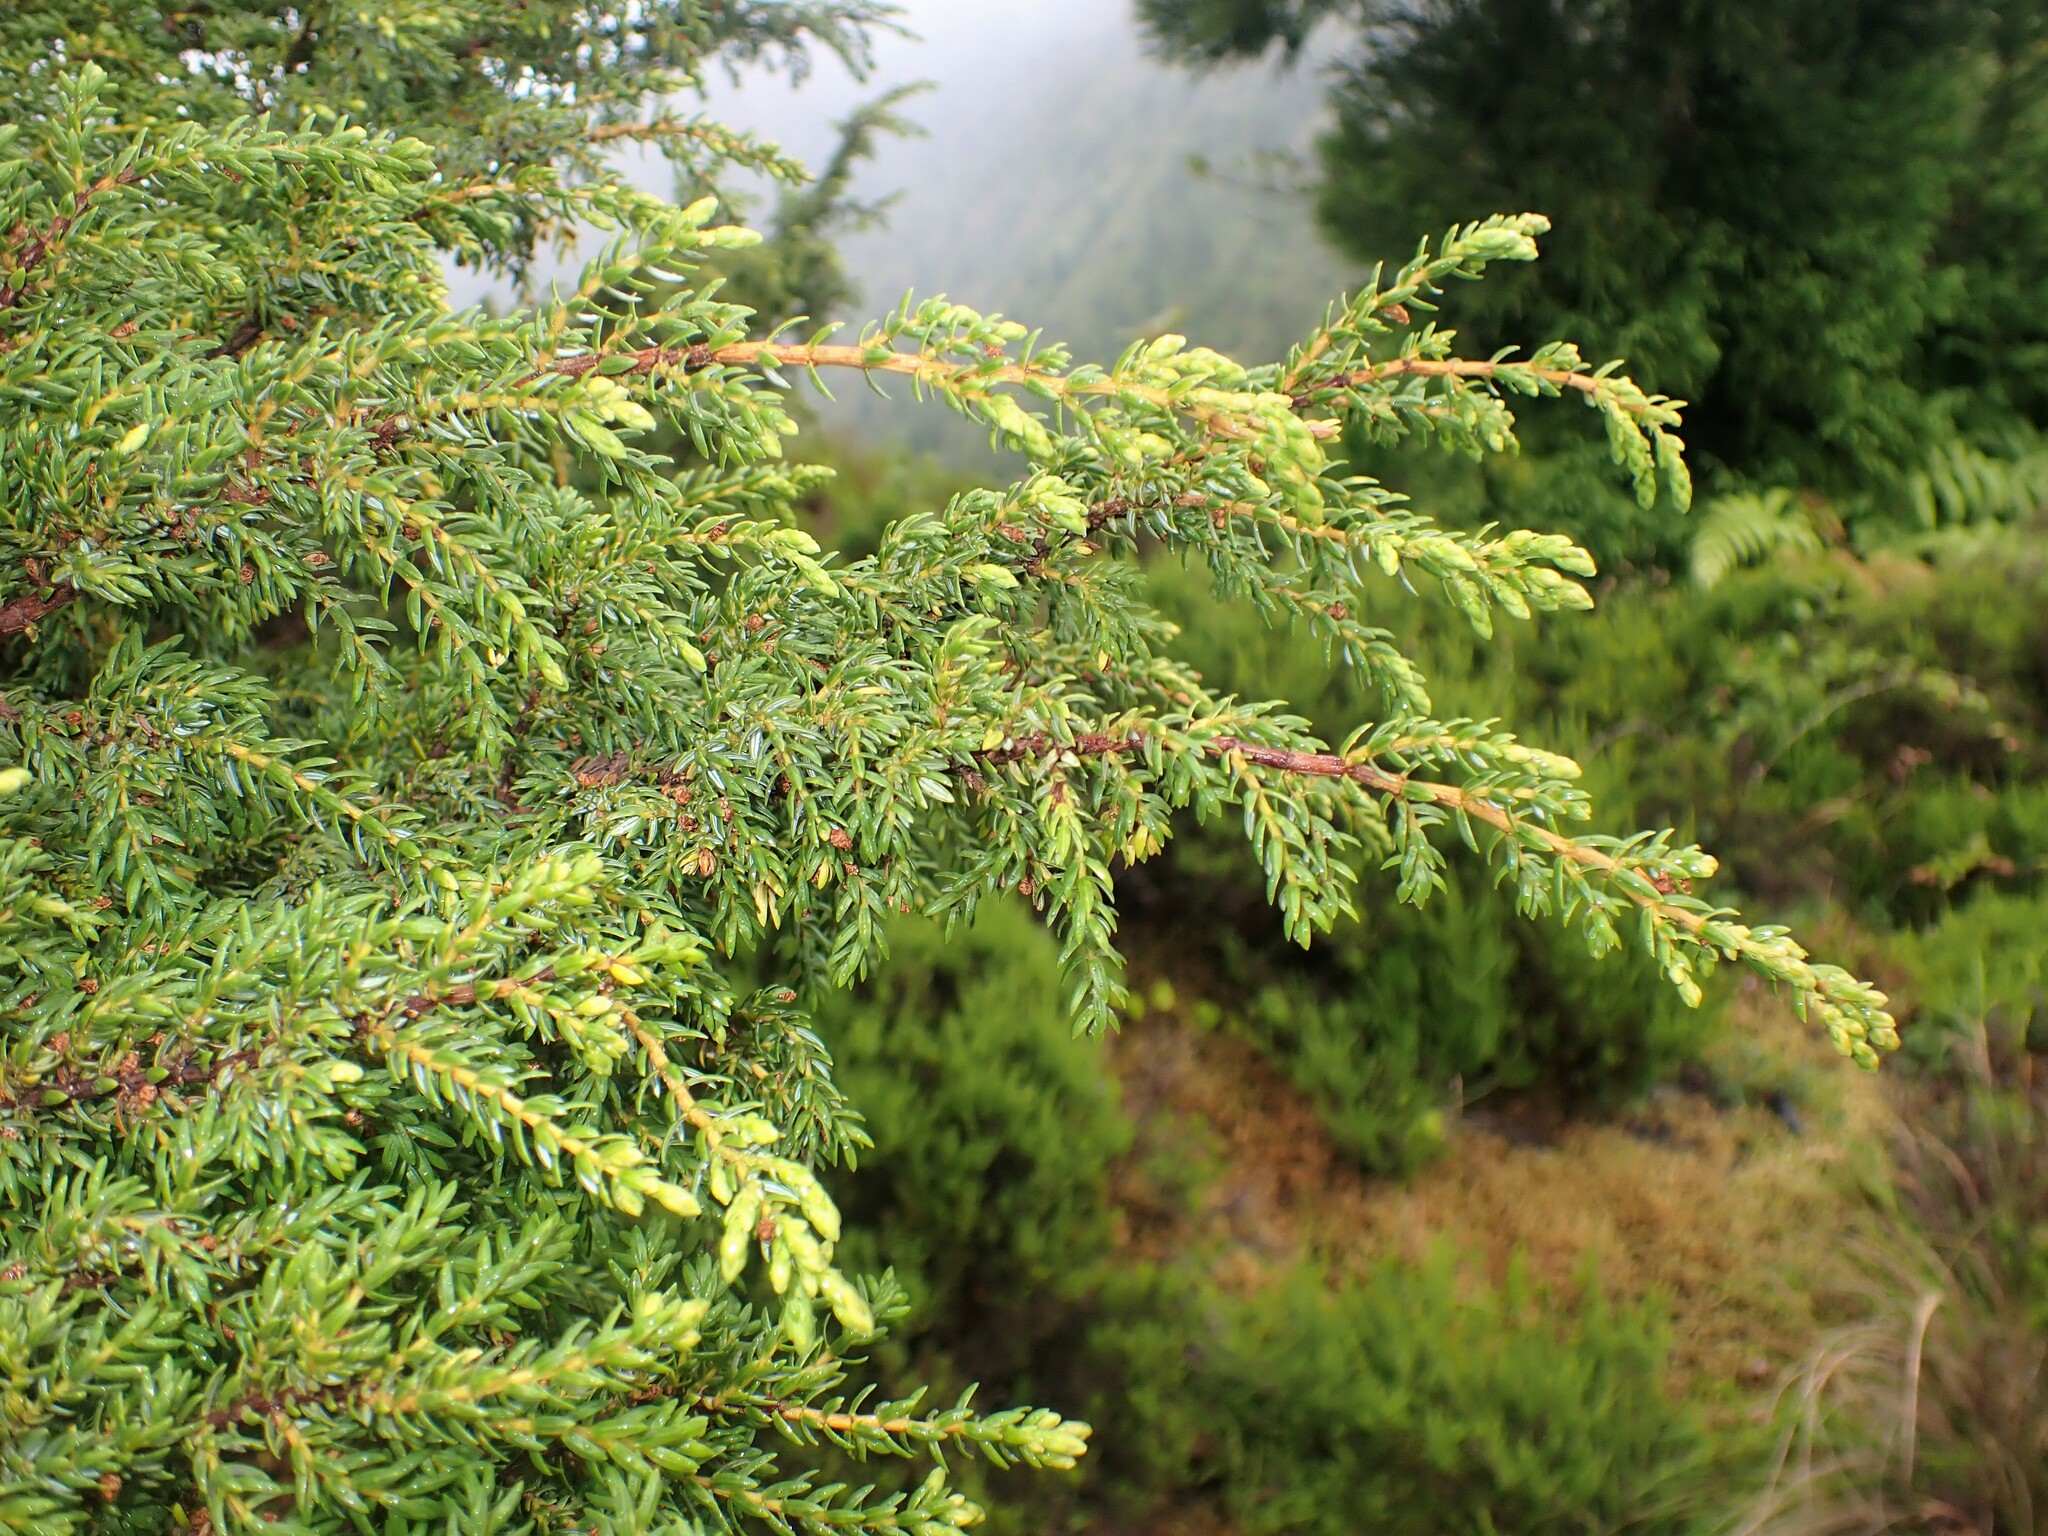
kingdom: Plantae
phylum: Tracheophyta
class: Pinopsida
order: Pinales
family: Cupressaceae
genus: Juniperus
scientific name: Juniperus brevifolia
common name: Azores juniper
